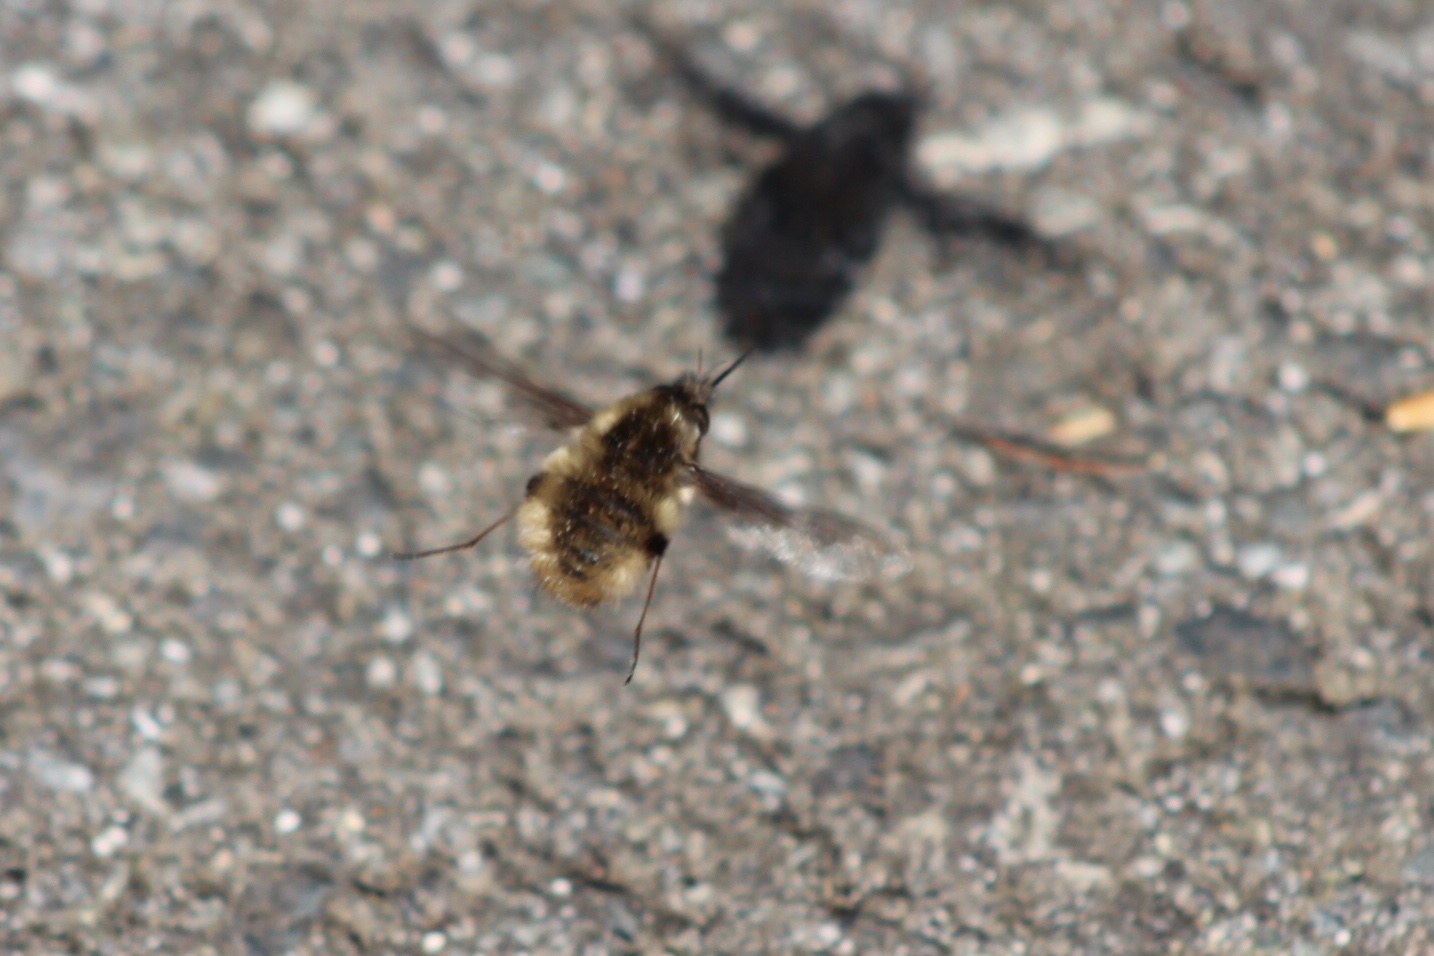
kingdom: Animalia
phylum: Arthropoda
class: Insecta
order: Diptera
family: Bombyliidae
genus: Bombylius
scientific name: Bombylius major
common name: Bee fly
